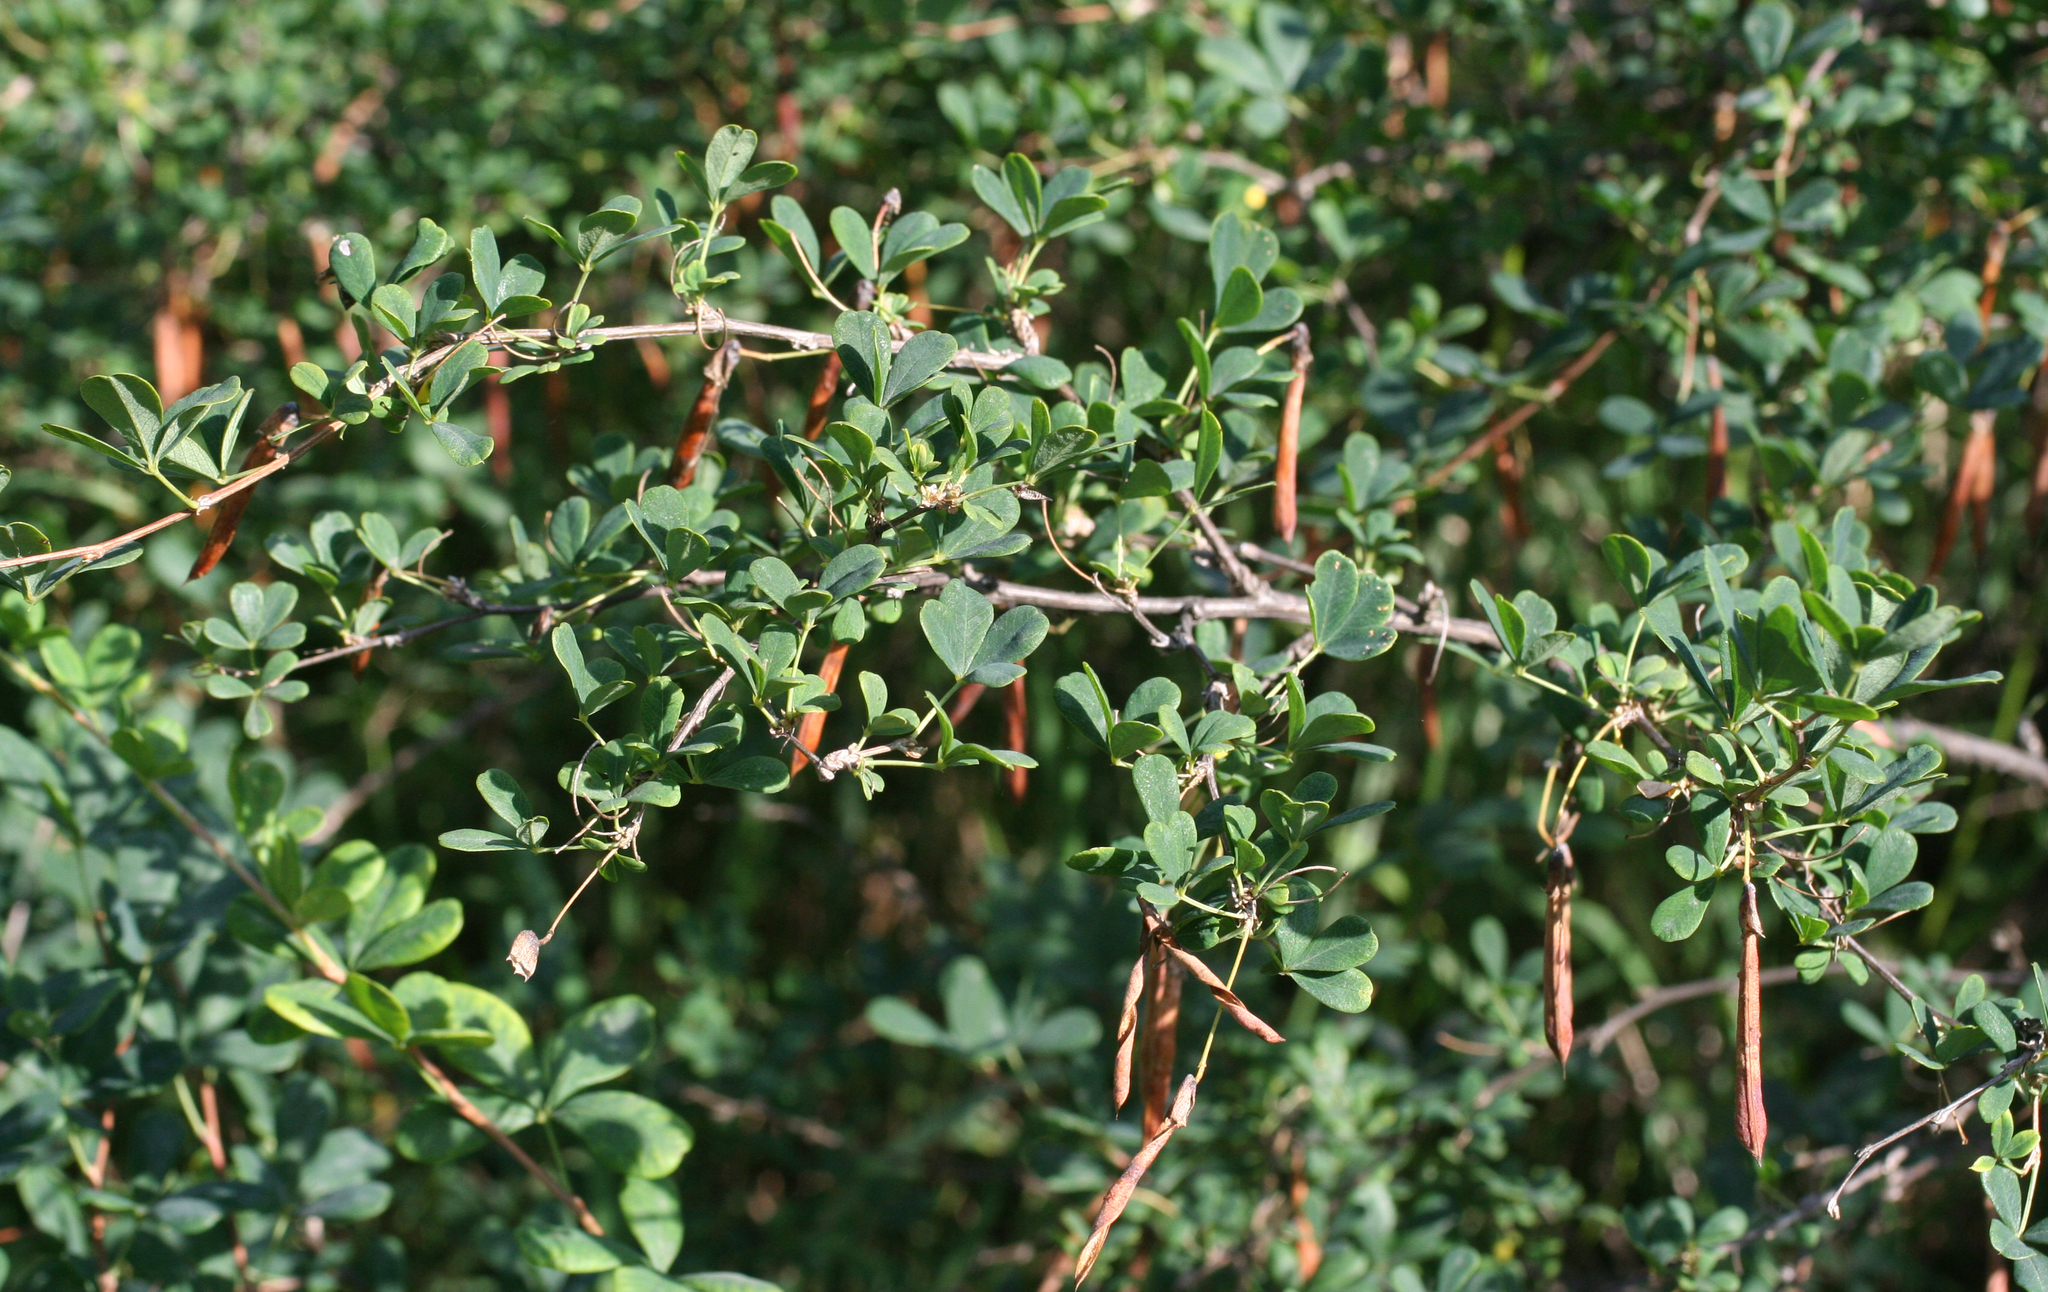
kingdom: Plantae
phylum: Tracheophyta
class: Magnoliopsida
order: Fabales
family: Fabaceae
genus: Caragana
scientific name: Caragana frutex
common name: Russian peashrub
